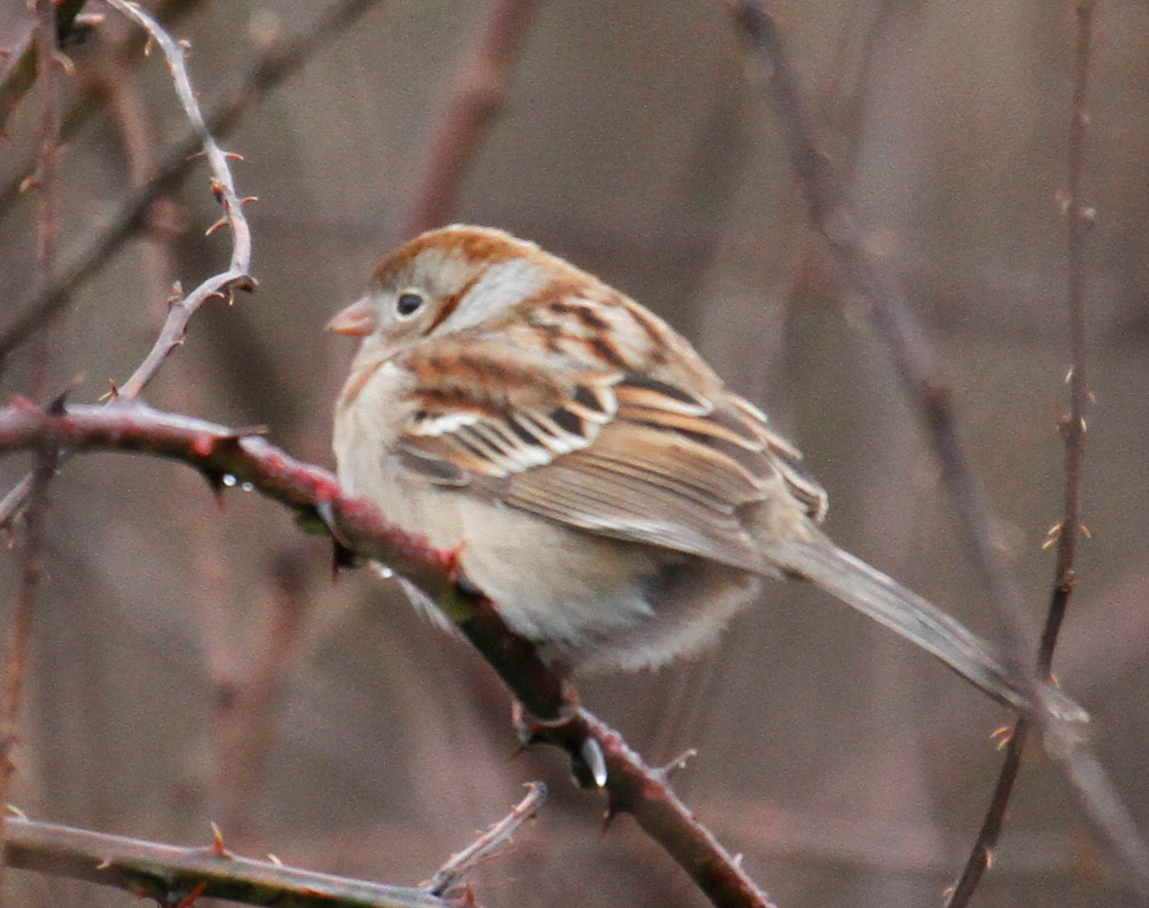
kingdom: Animalia
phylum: Chordata
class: Aves
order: Passeriformes
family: Passerellidae
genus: Spizella
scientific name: Spizella pusilla
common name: Field sparrow
